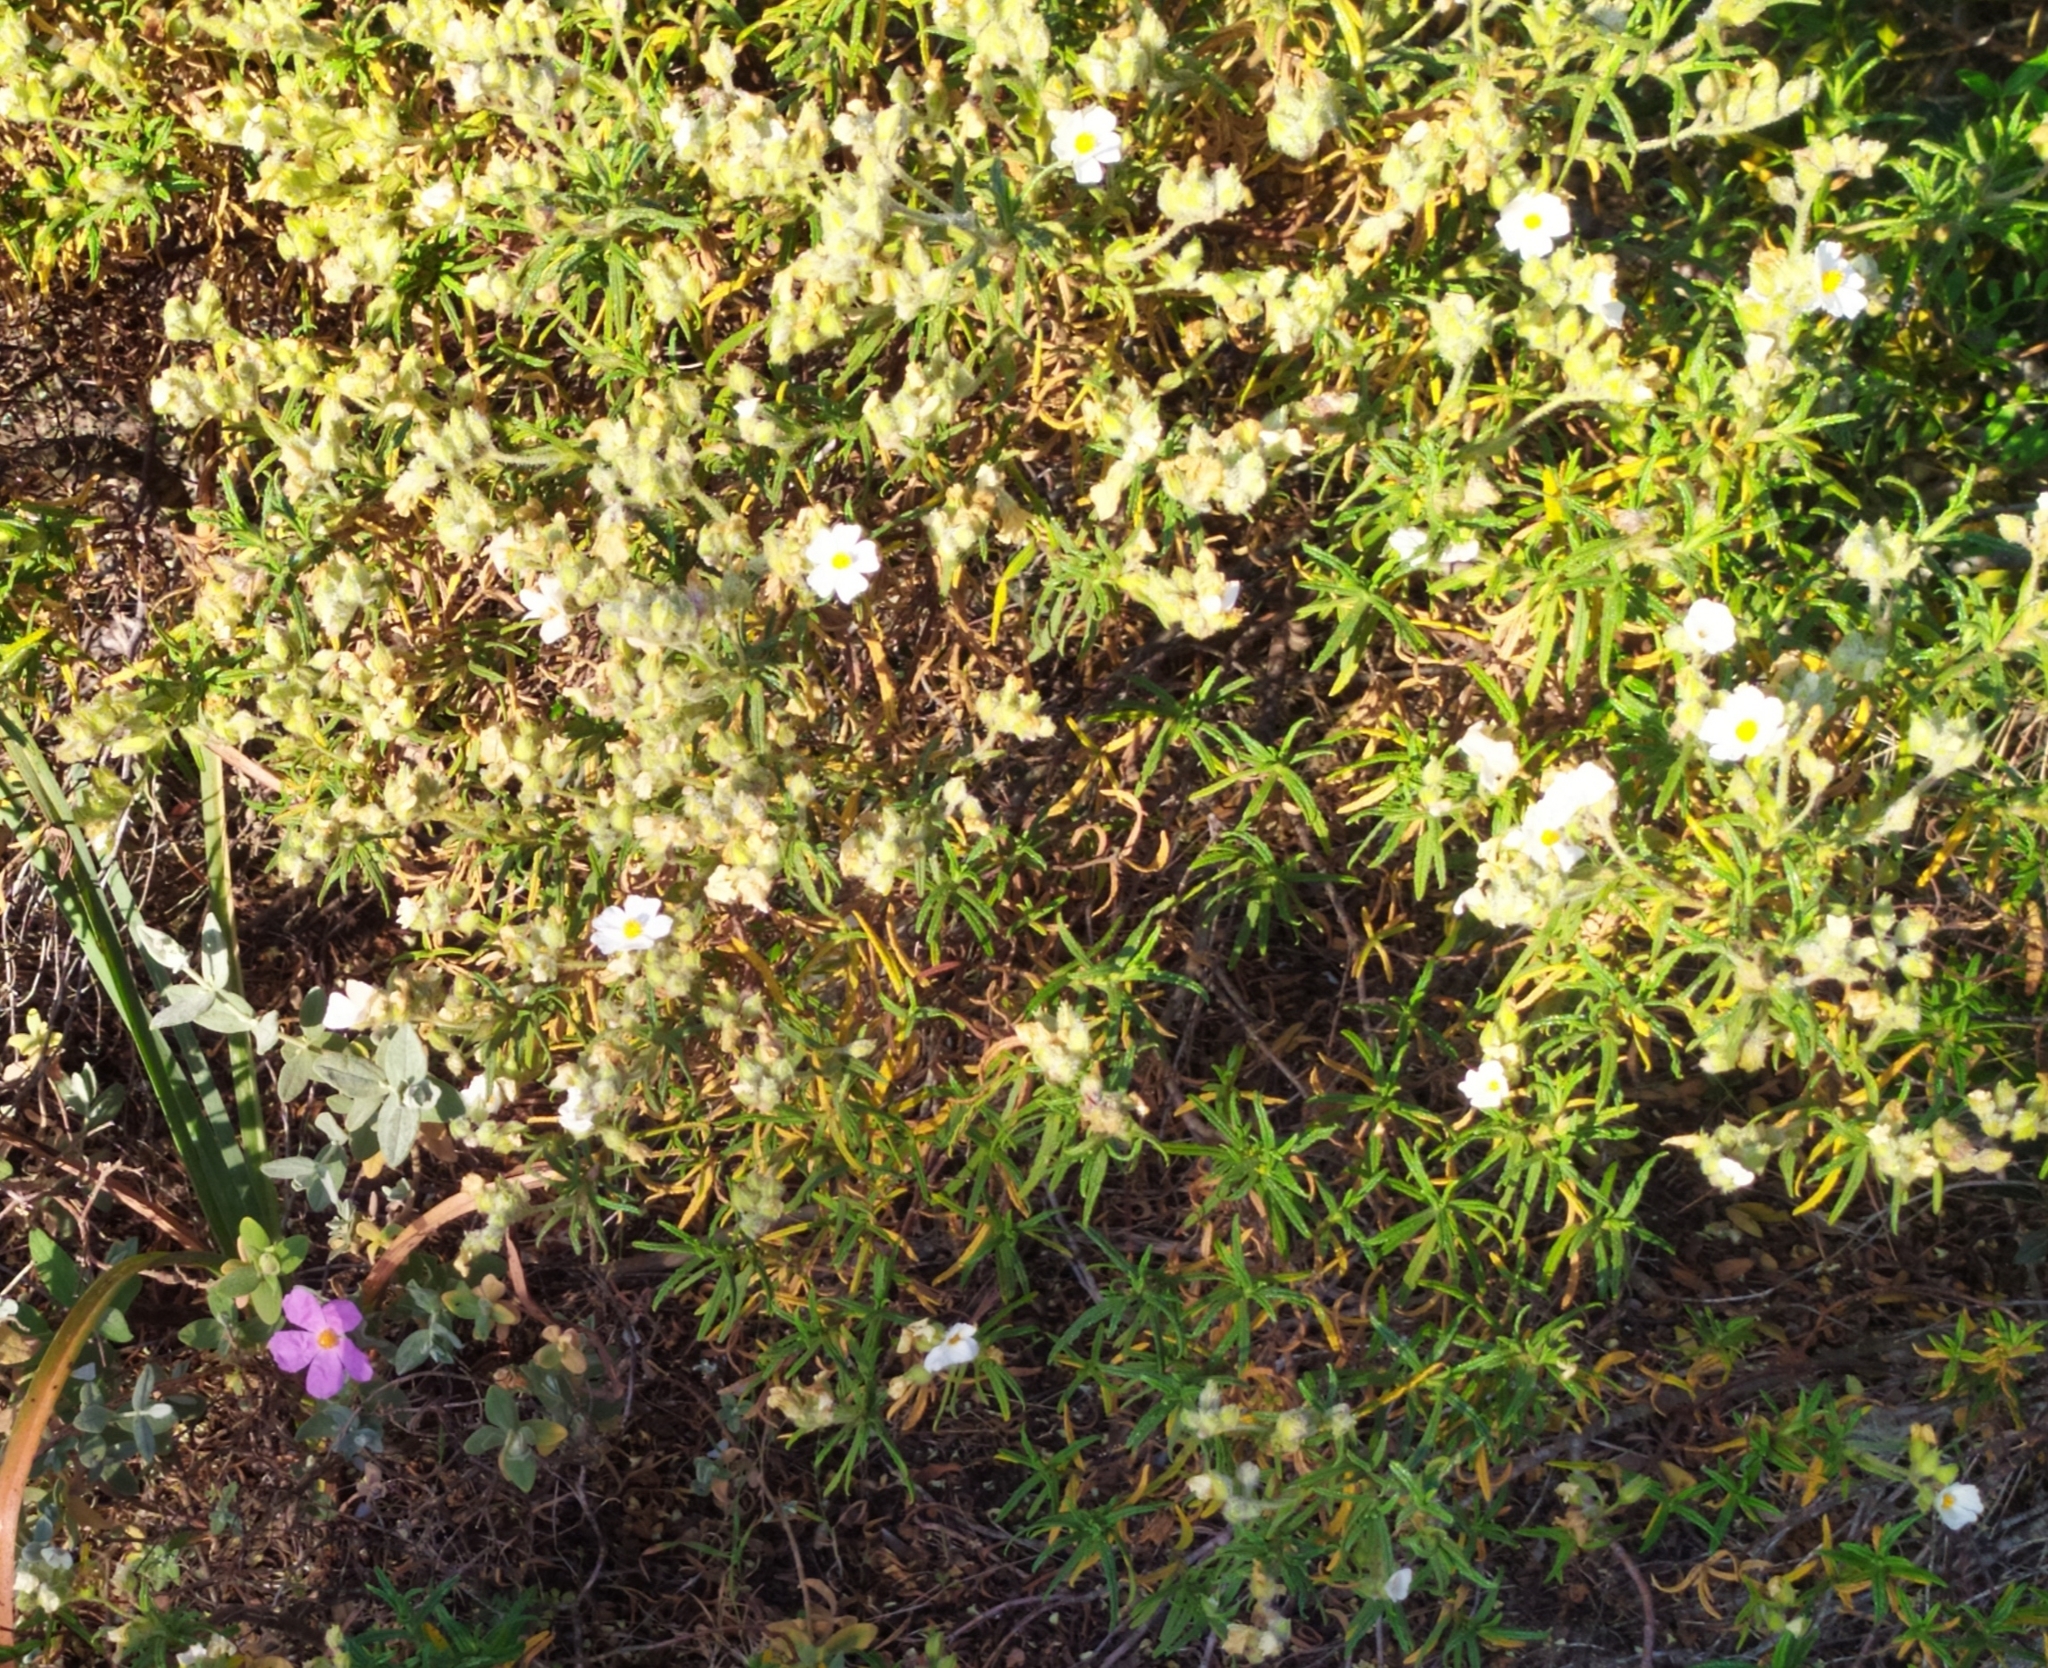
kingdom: Plantae
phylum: Tracheophyta
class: Magnoliopsida
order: Malvales
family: Cistaceae
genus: Cistus
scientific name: Cistus monspeliensis
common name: Montpelier cistus
